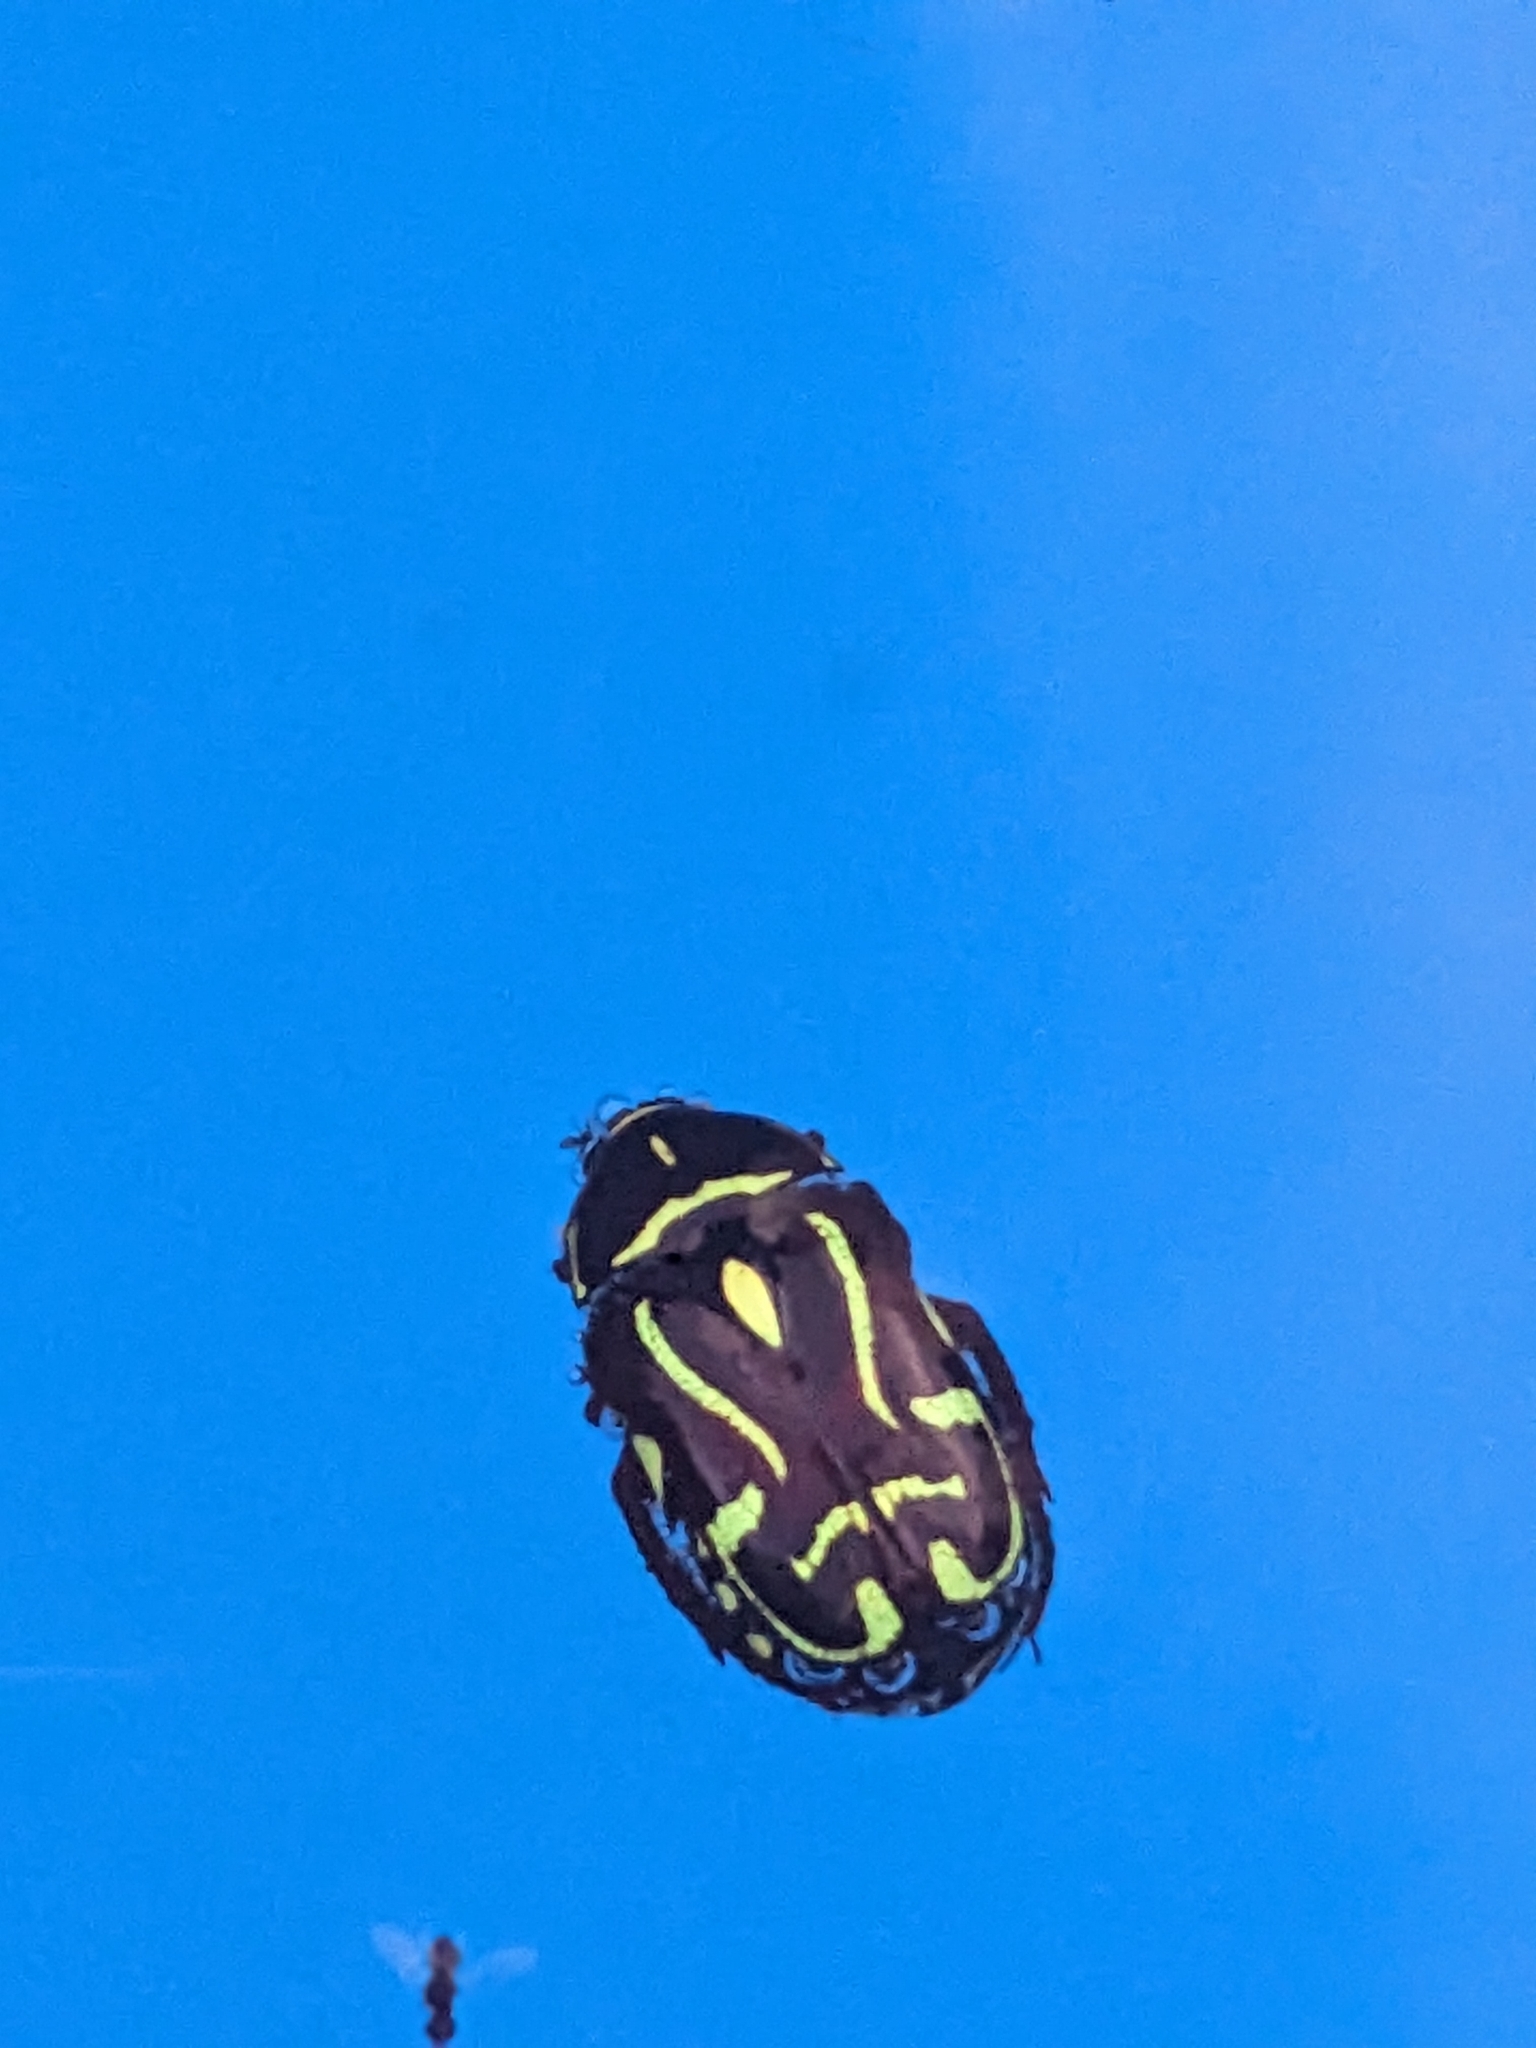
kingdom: Animalia
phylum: Arthropoda
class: Insecta
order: Coleoptera
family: Scarabaeidae
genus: Eupoecila
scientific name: Eupoecila australasiae
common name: Fiddler beetle
